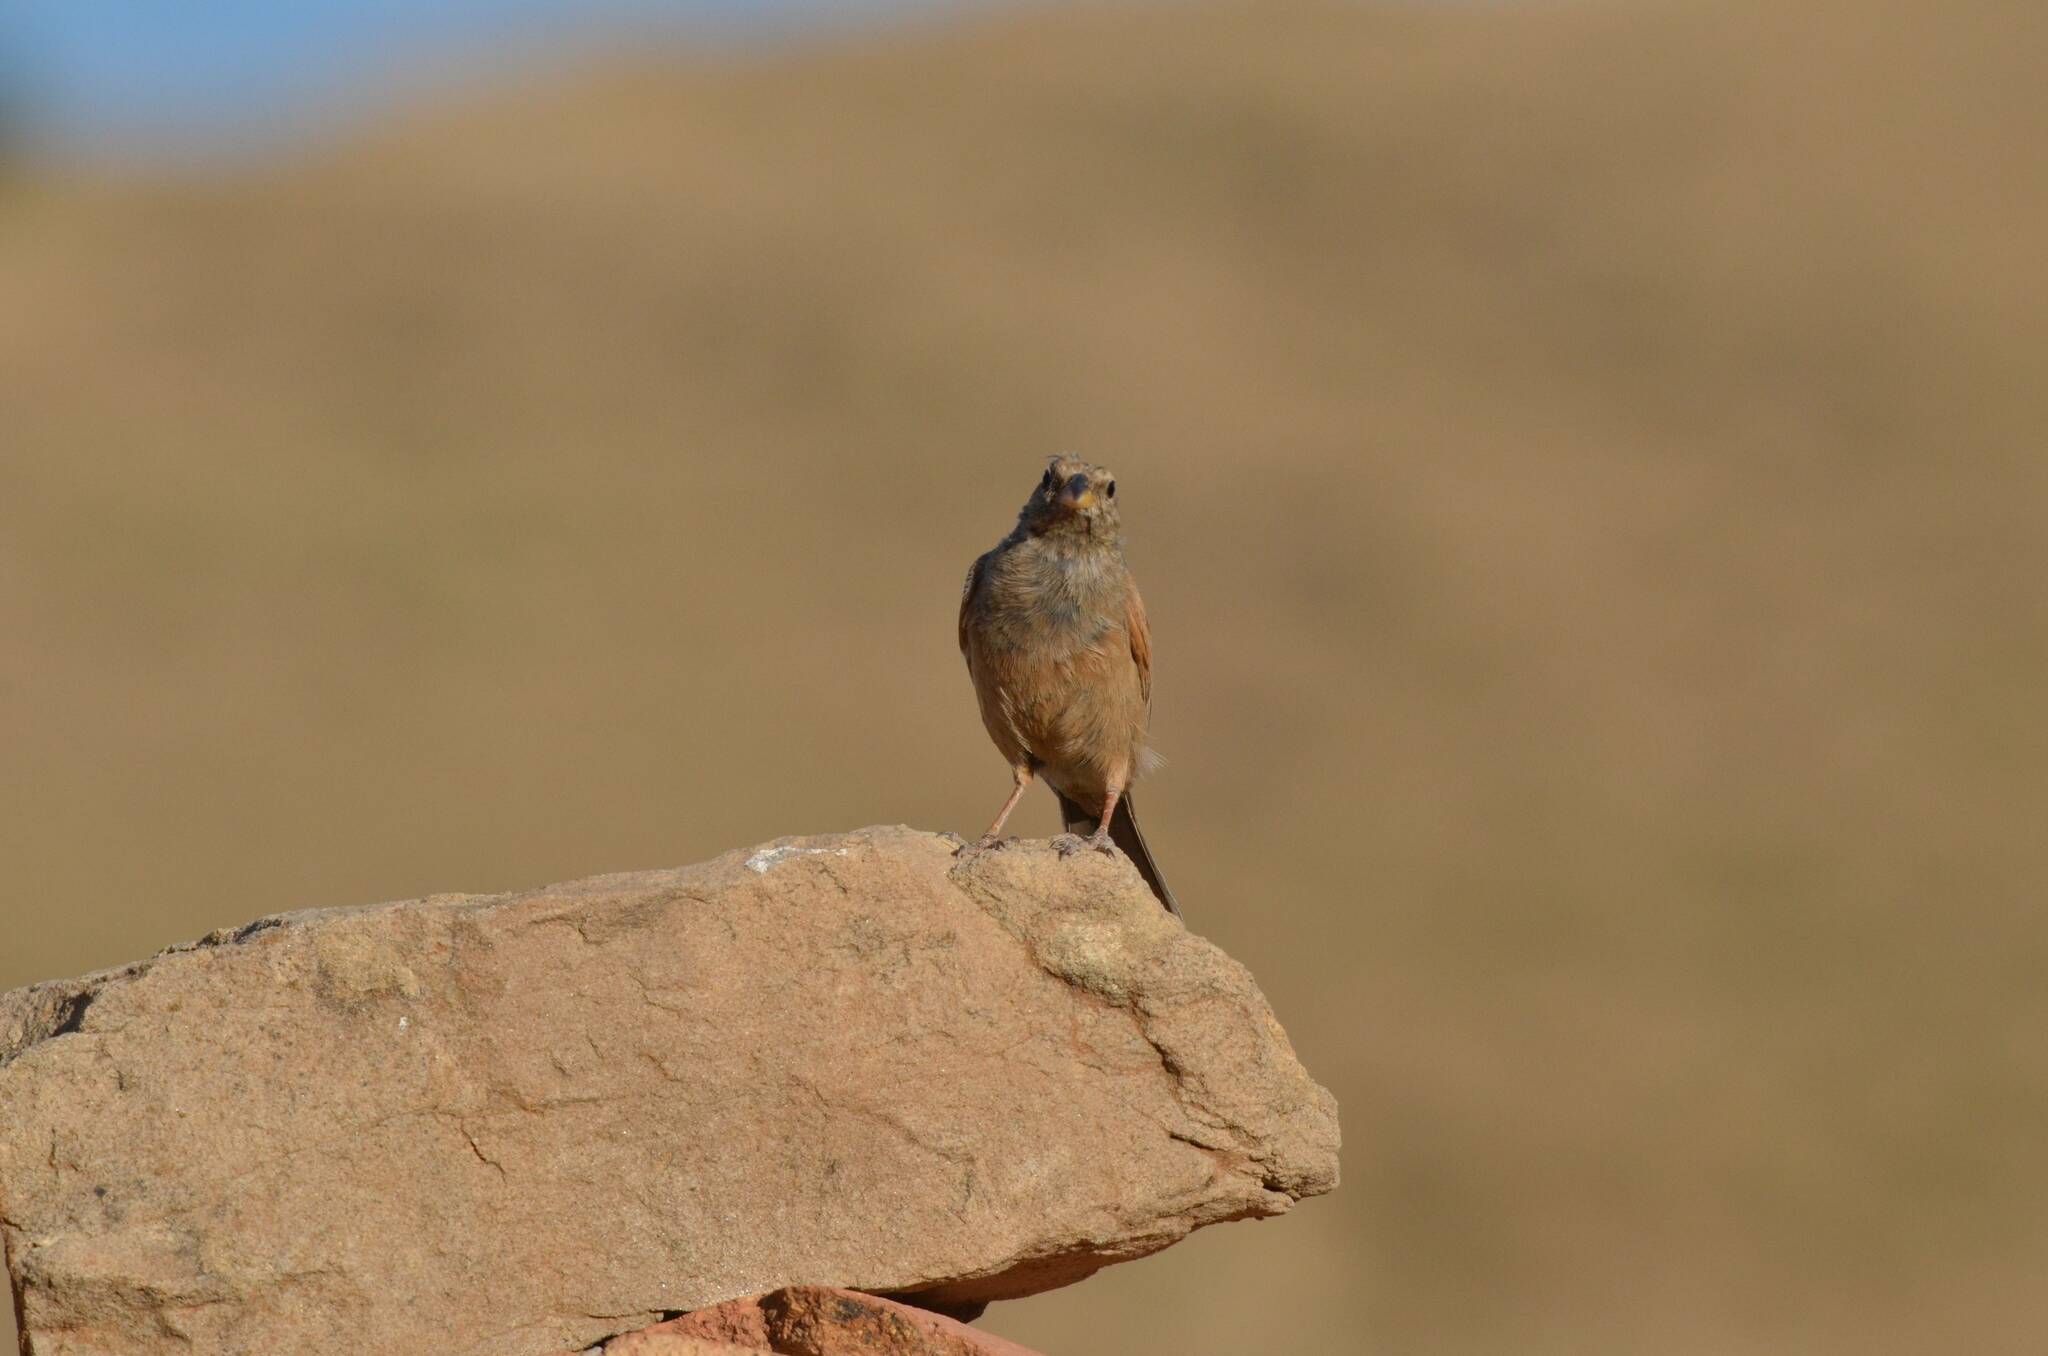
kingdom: Animalia
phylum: Chordata
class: Aves
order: Passeriformes
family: Emberizidae
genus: Emberiza
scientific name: Emberiza sahari
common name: House bunting
